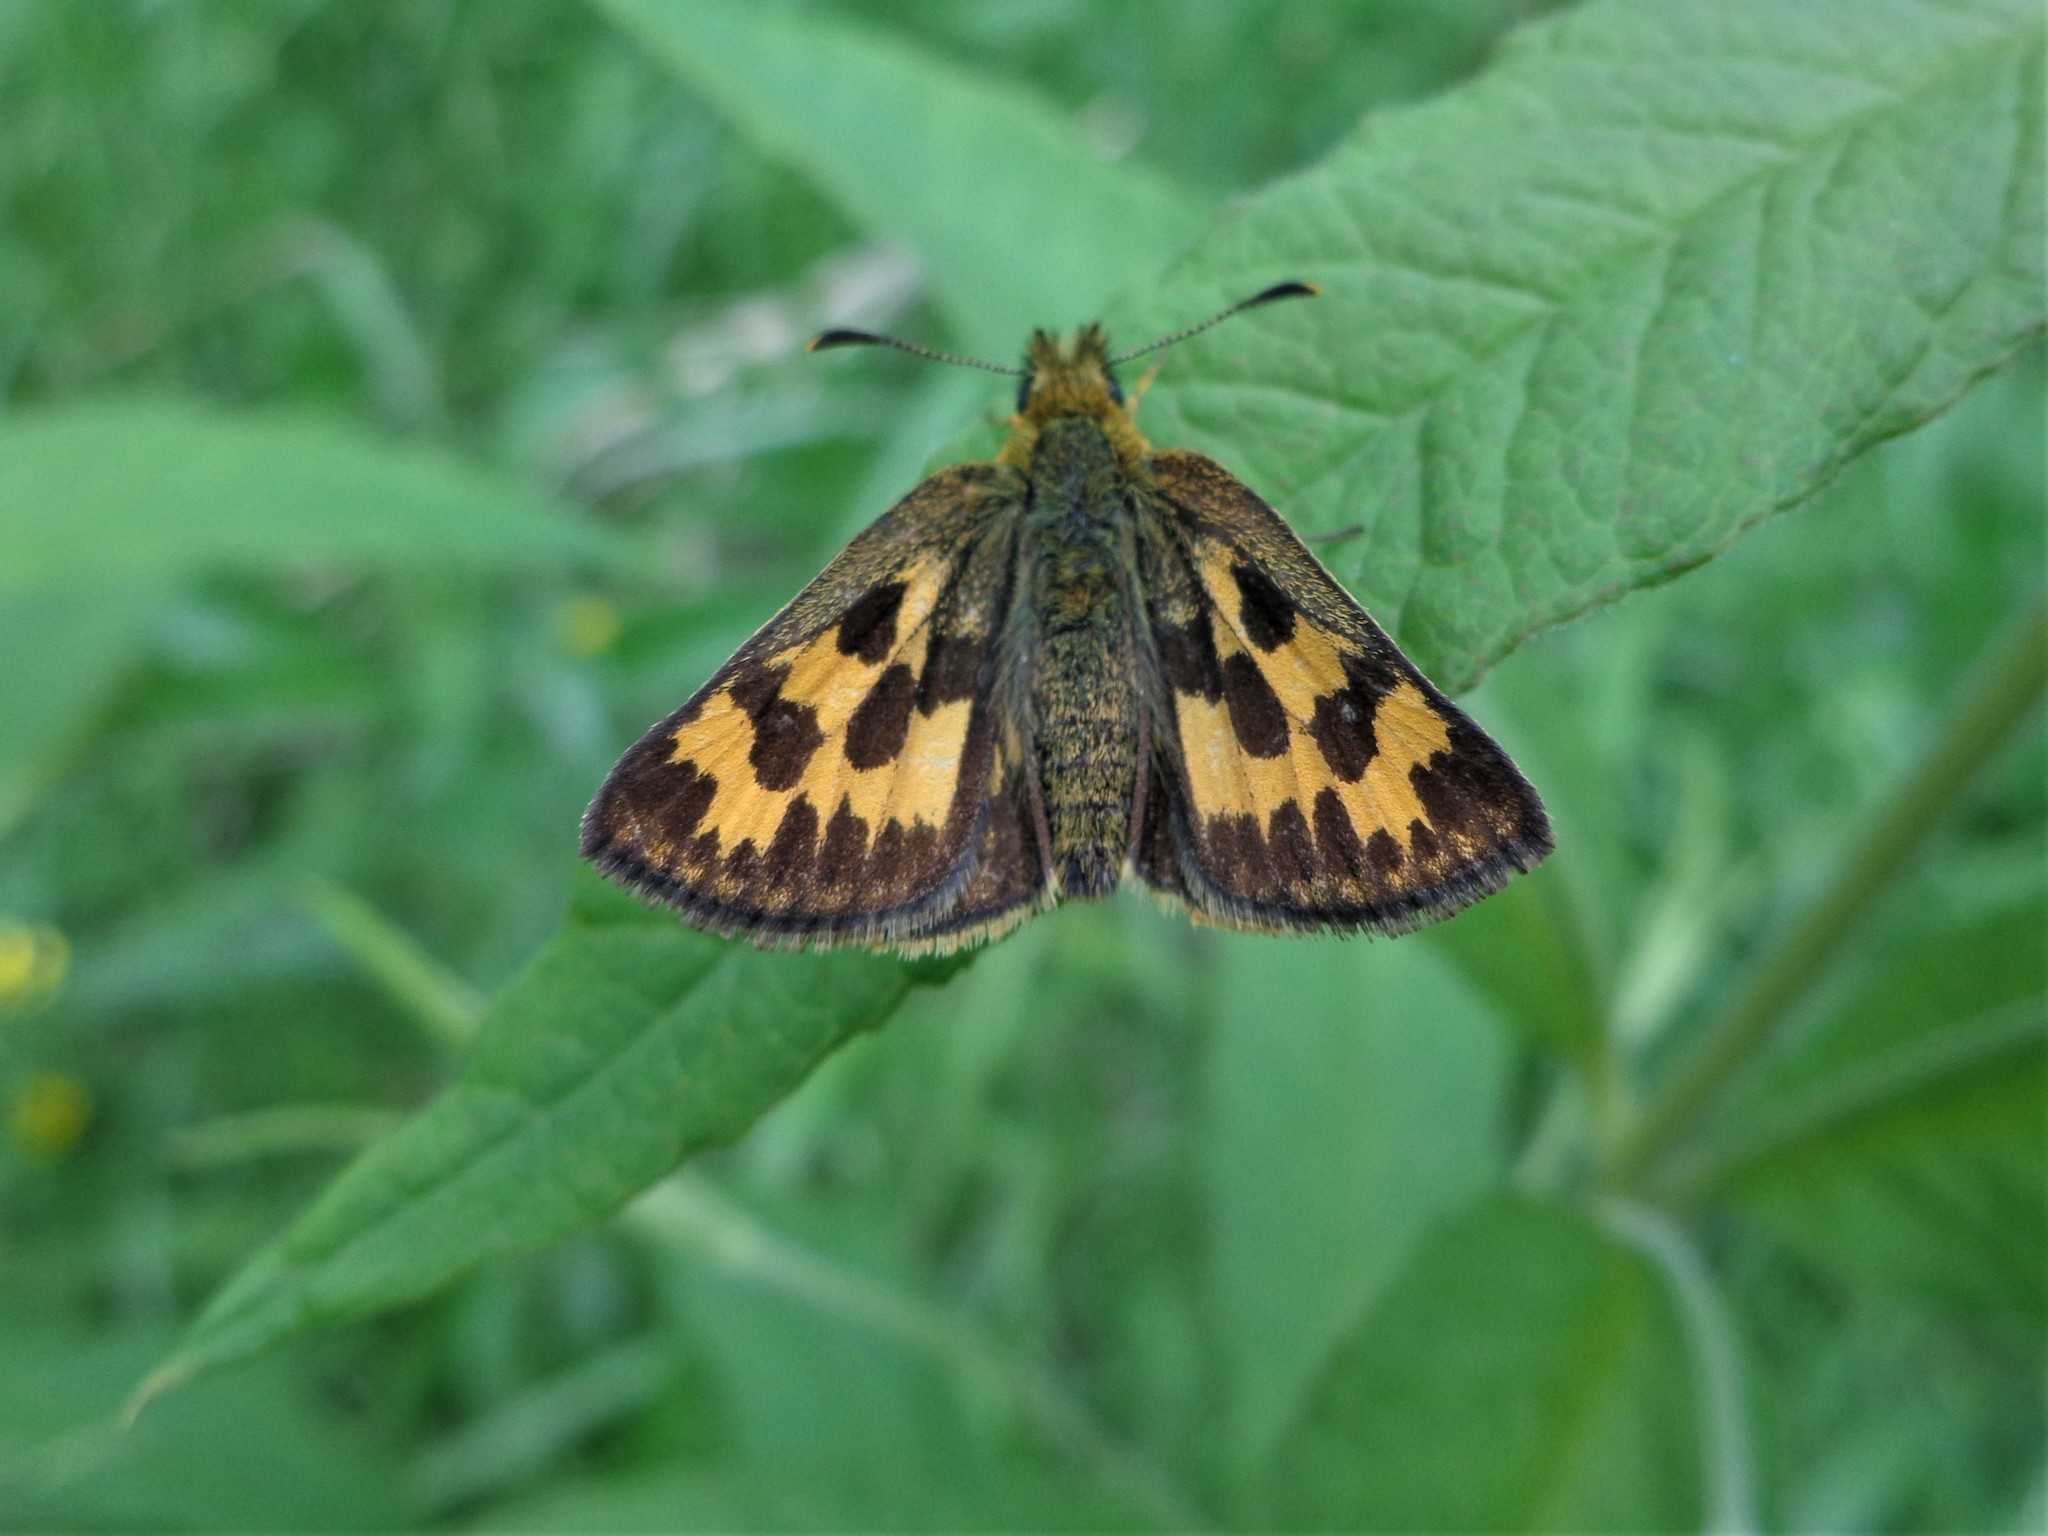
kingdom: Animalia
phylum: Arthropoda
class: Insecta
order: Lepidoptera
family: Hesperiidae
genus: Carterocephalus
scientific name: Carterocephalus silvicola
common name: Northern chequered skipper
